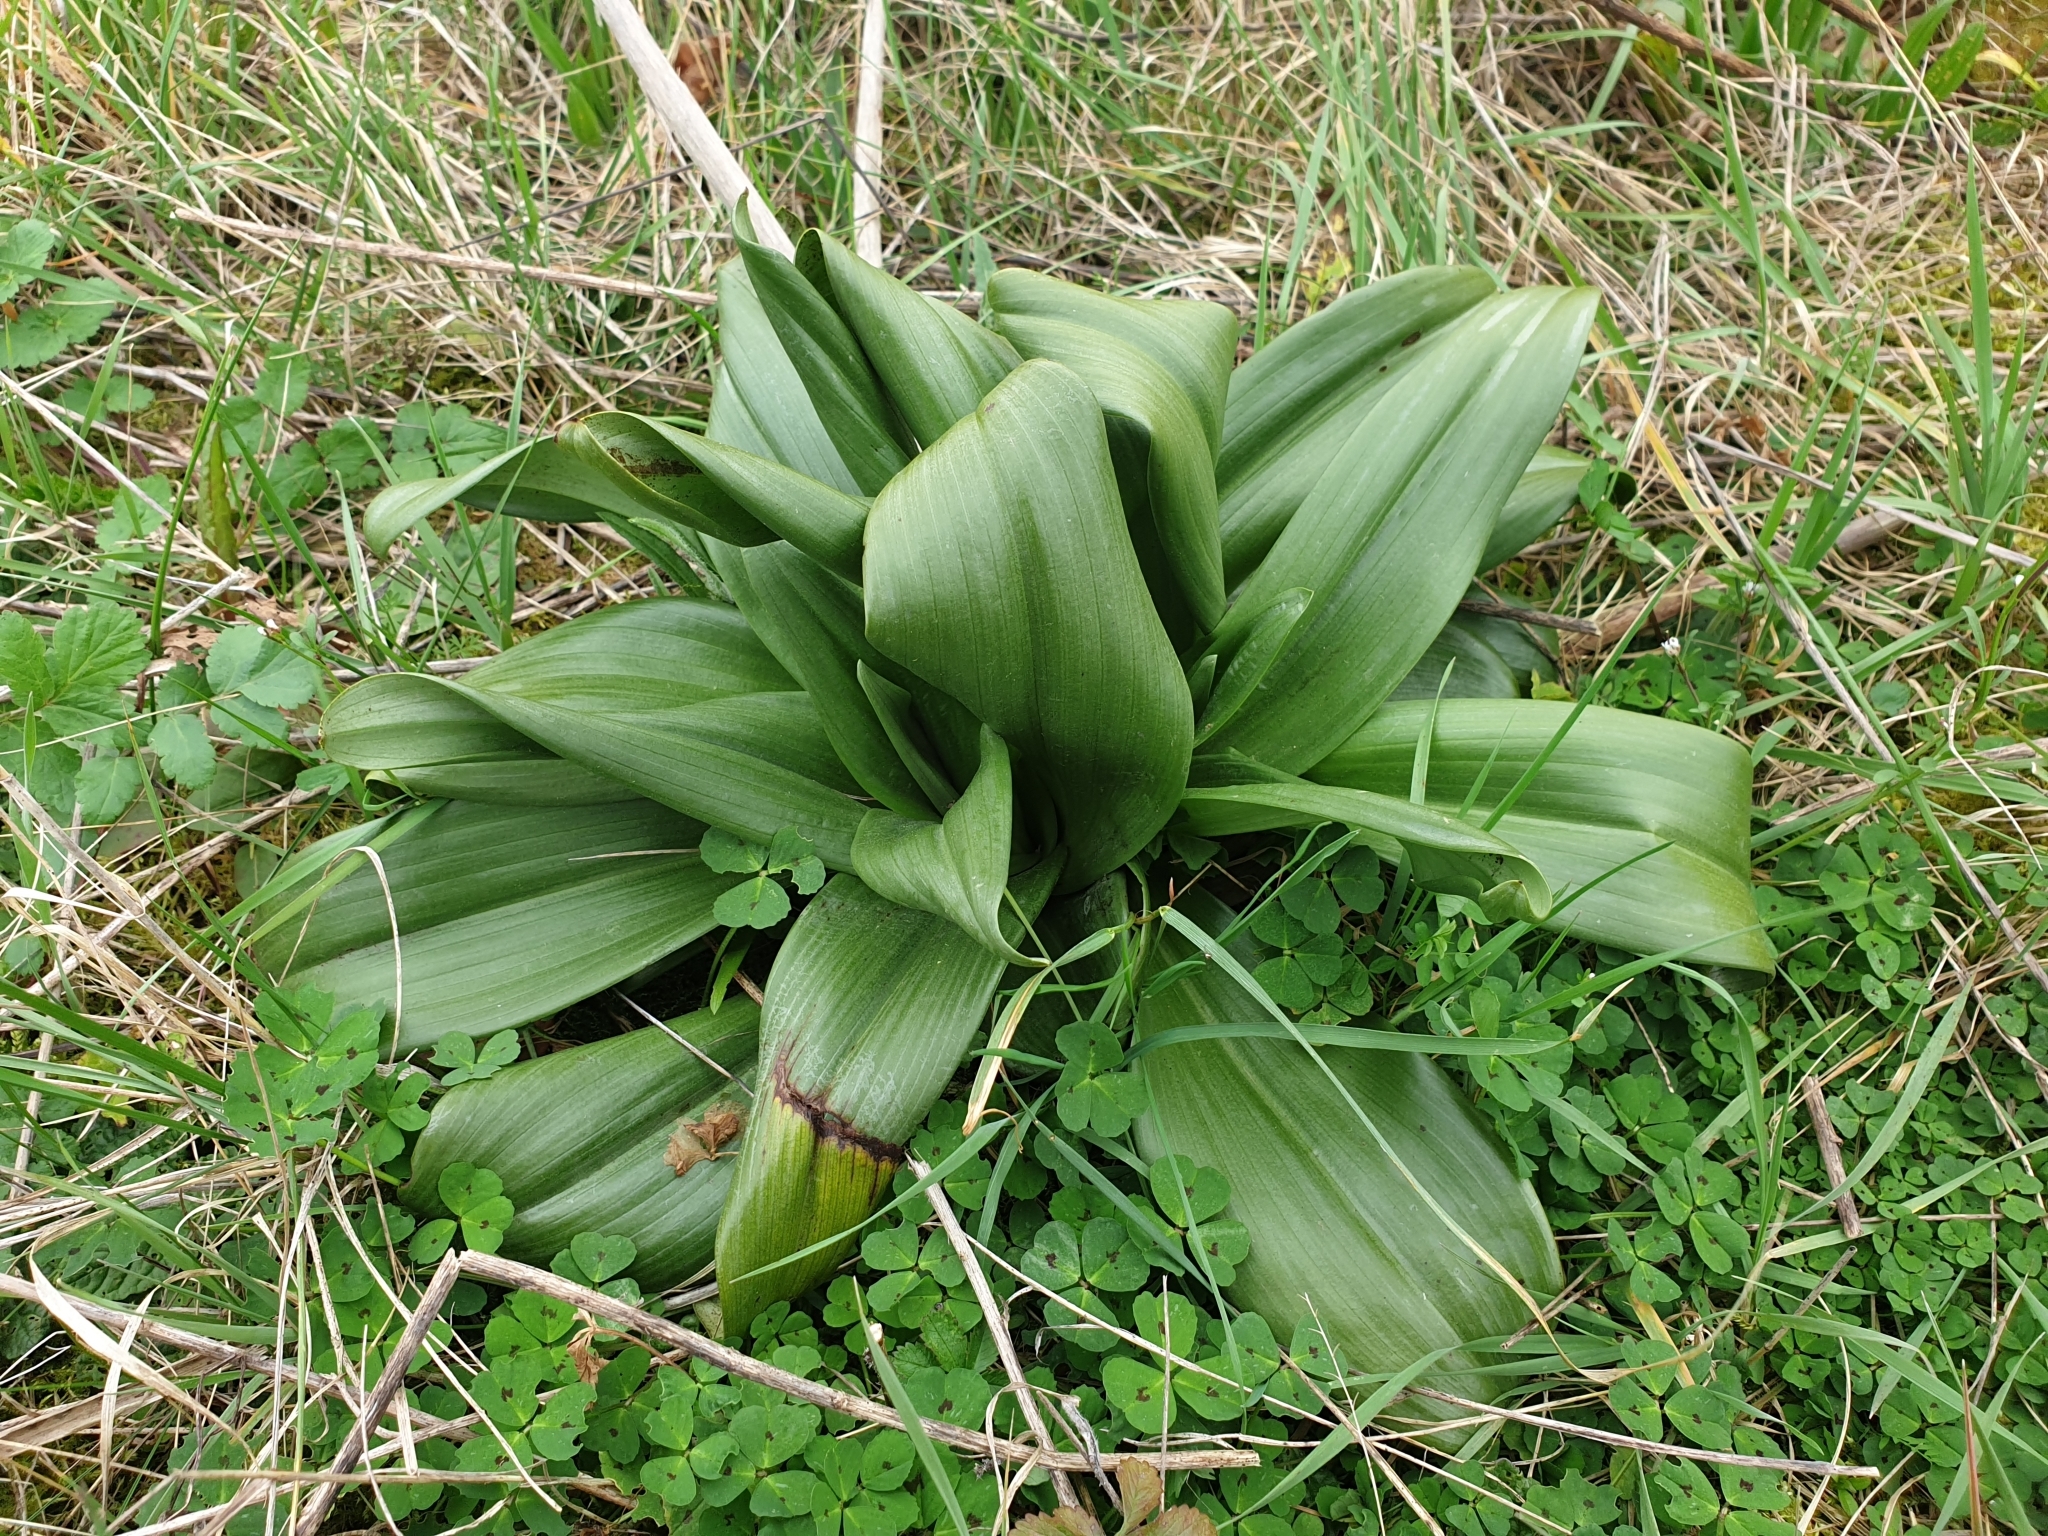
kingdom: Plantae
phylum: Tracheophyta
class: Liliopsida
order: Asparagales
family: Orchidaceae
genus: Himantoglossum
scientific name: Himantoglossum hircinum
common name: Lizard orchid
